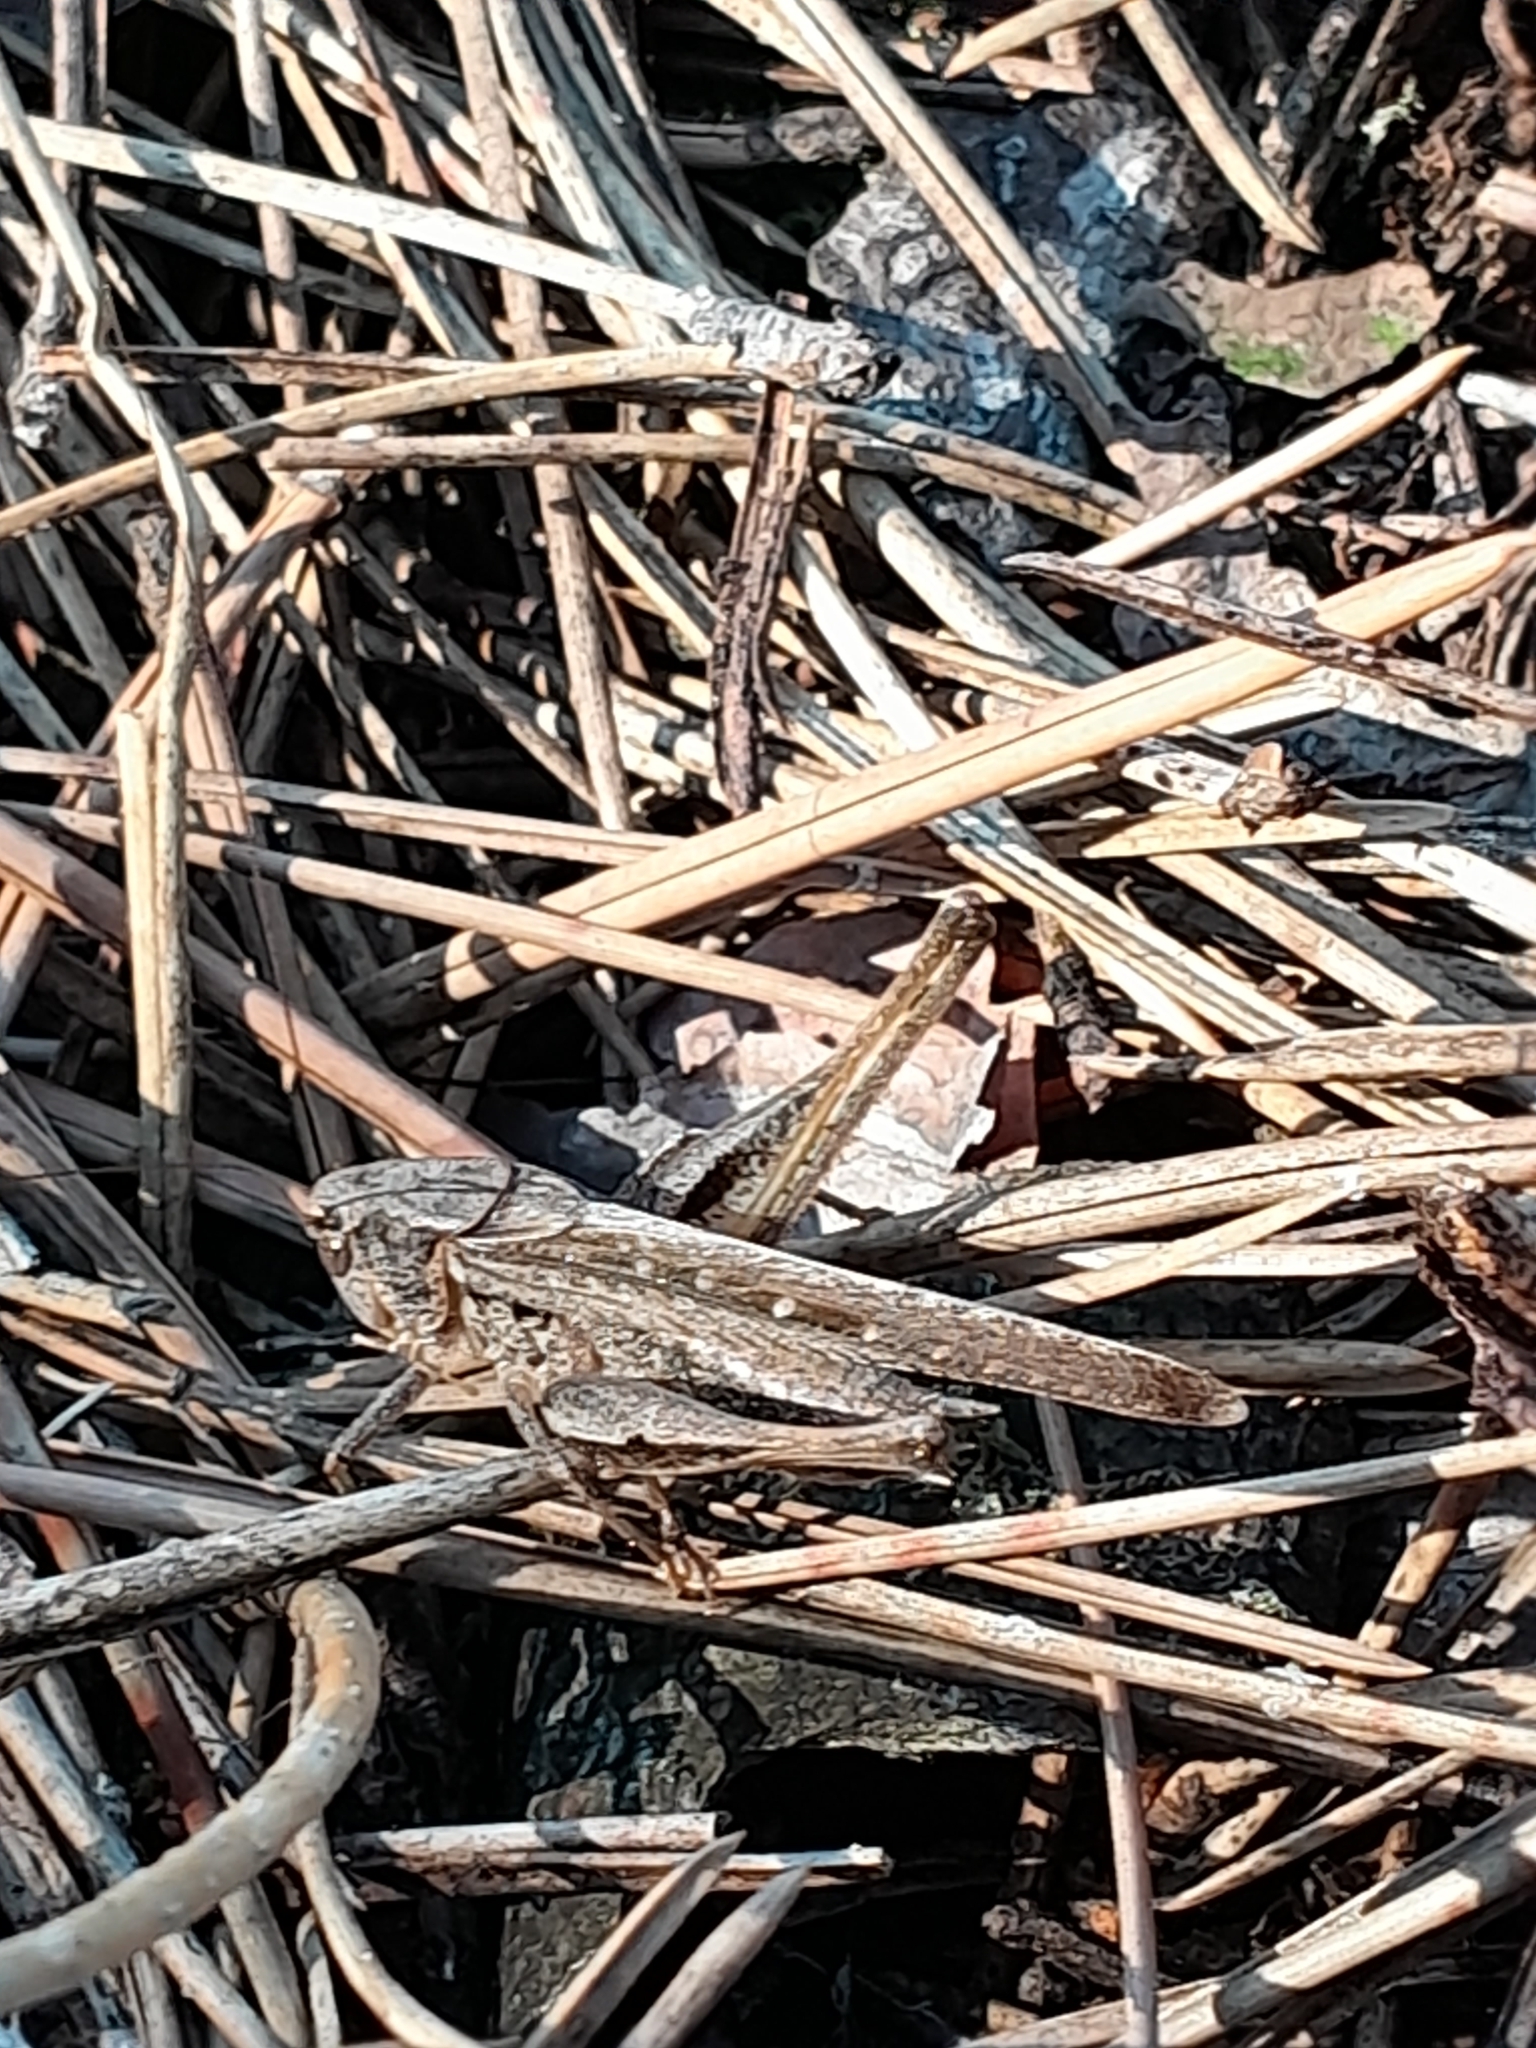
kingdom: Animalia
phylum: Arthropoda
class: Insecta
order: Orthoptera
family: Tettigoniidae
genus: Platycleis
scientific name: Platycleis grisea
